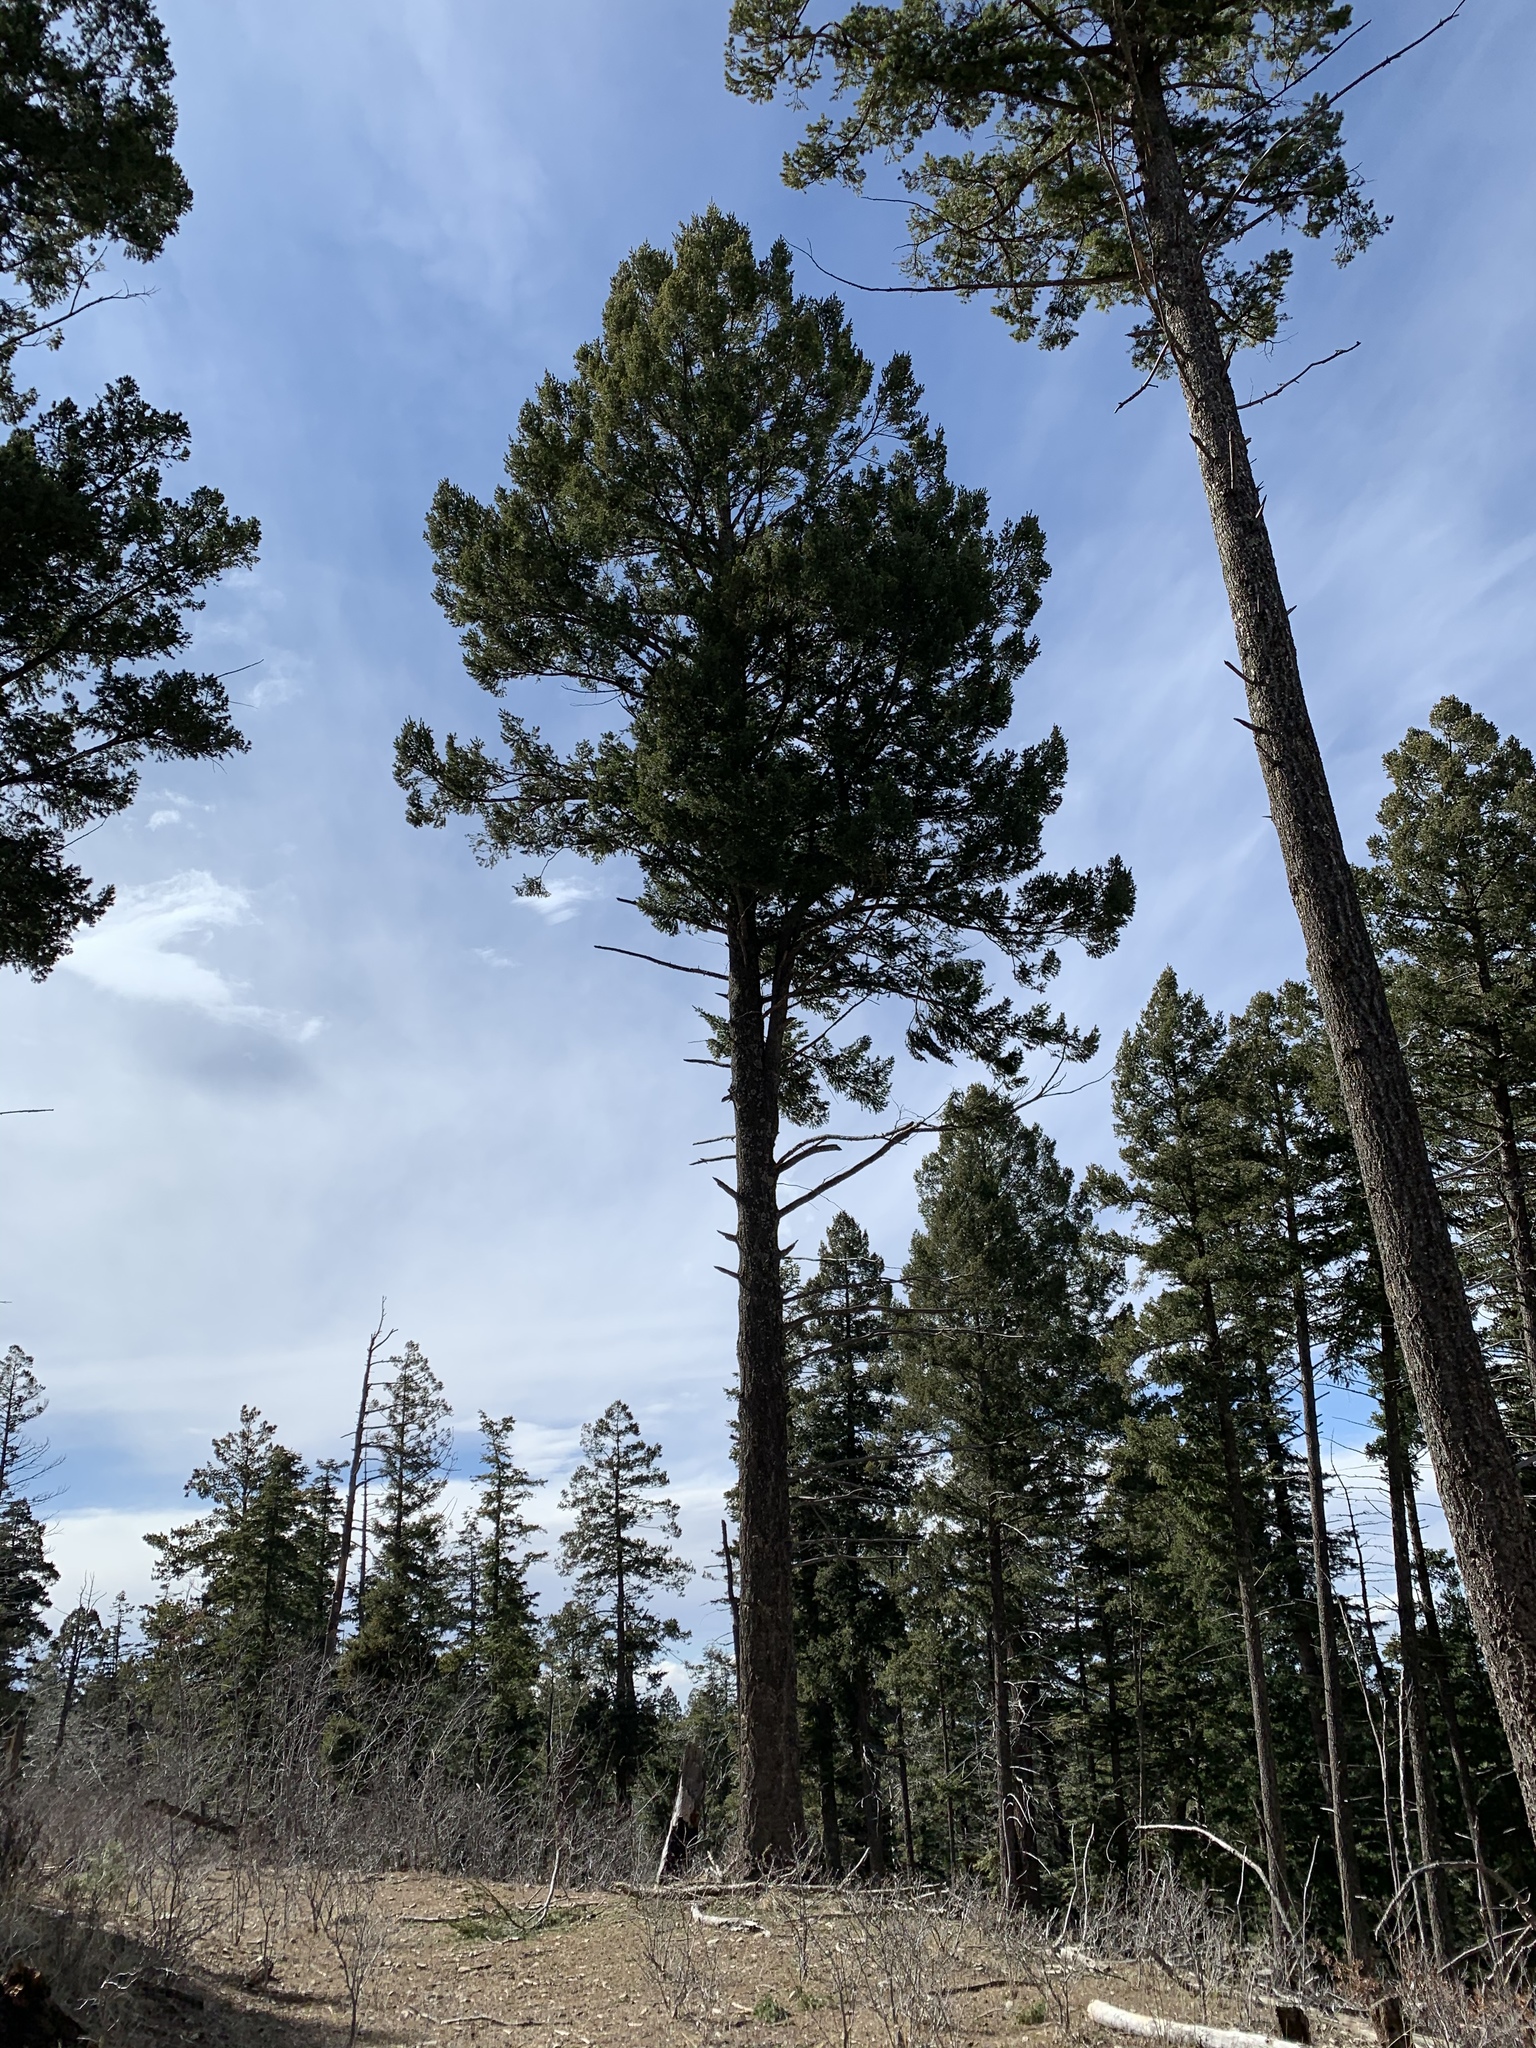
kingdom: Plantae
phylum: Tracheophyta
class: Pinopsida
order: Pinales
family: Pinaceae
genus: Pinus
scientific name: Pinus ponderosa
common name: Western yellow-pine
